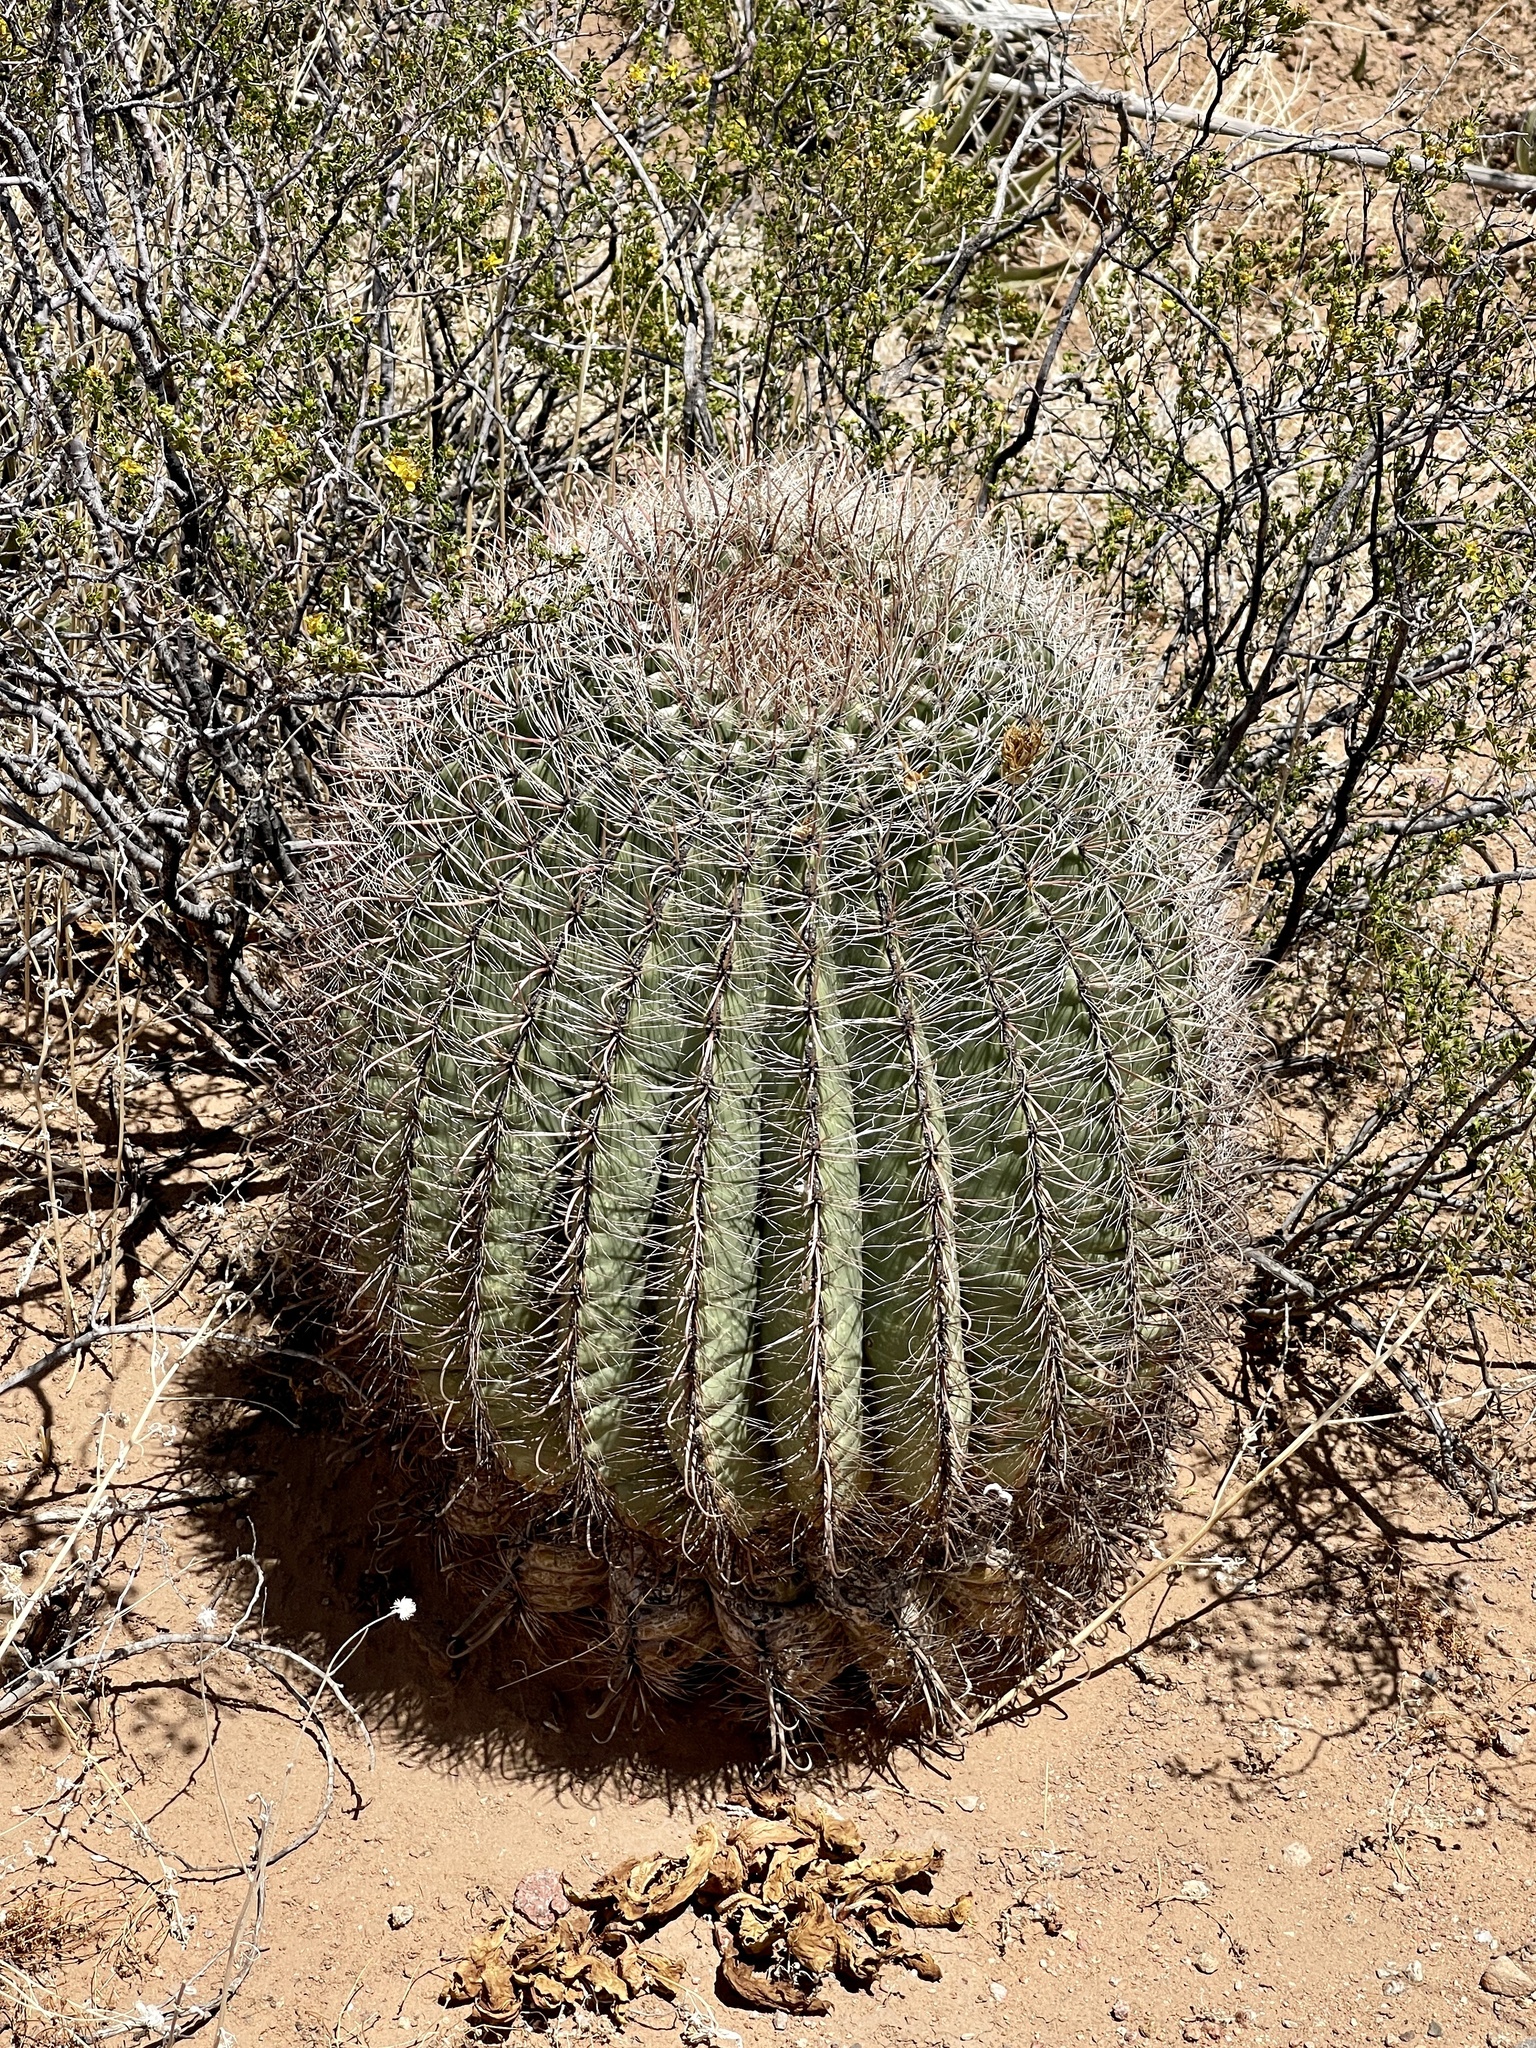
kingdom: Plantae
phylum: Tracheophyta
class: Magnoliopsida
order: Caryophyllales
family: Cactaceae
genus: Ferocactus
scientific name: Ferocactus wislizeni
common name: Candy barrel cactus
